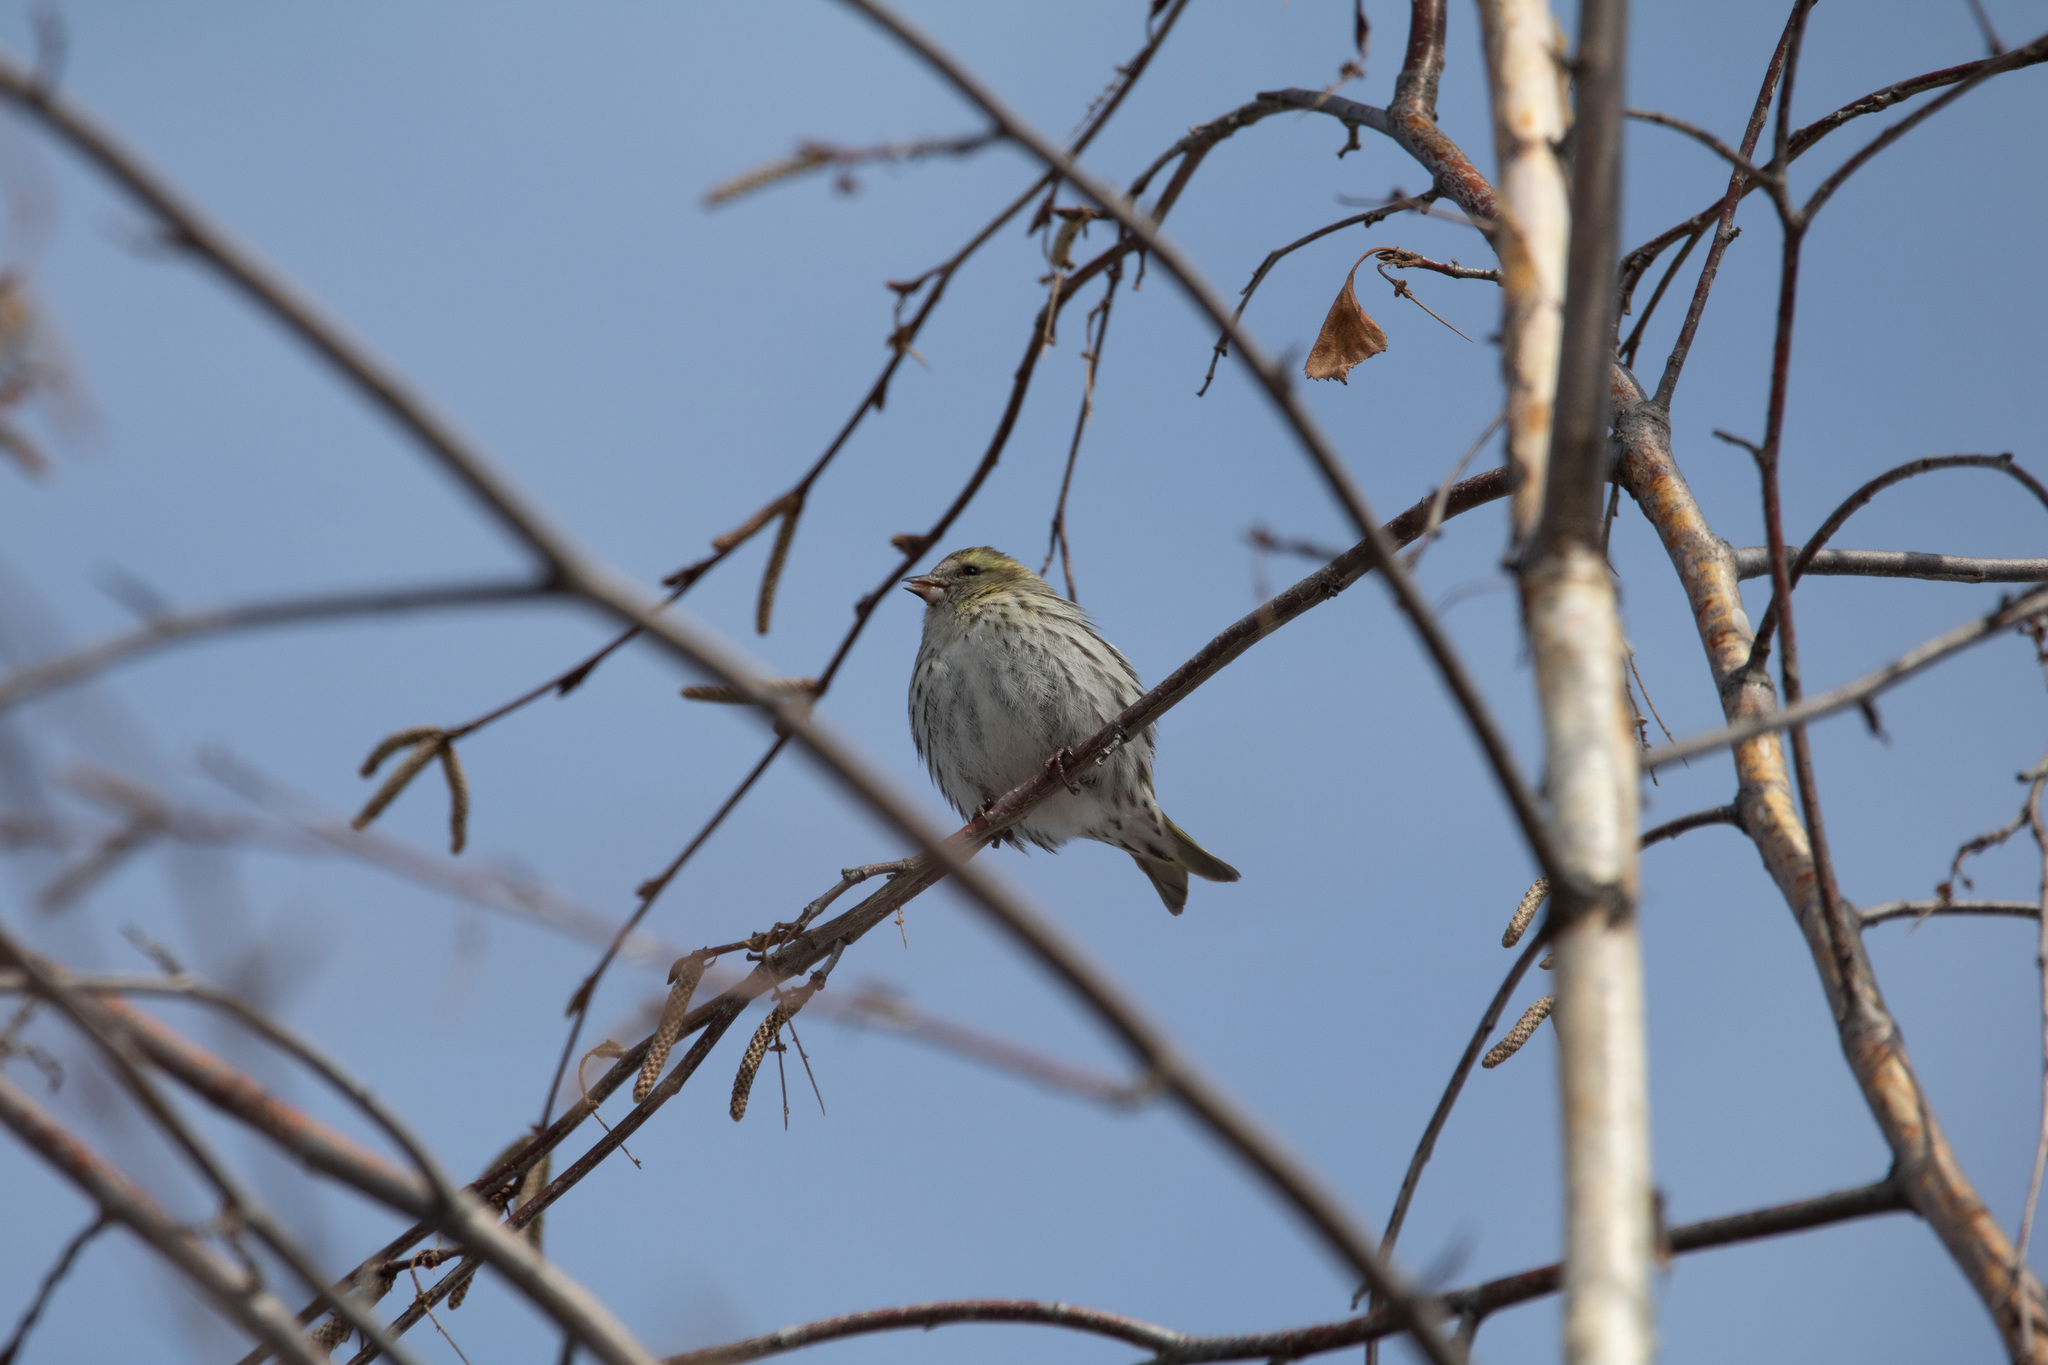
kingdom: Animalia
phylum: Chordata
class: Aves
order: Passeriformes
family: Fringillidae
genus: Spinus
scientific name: Spinus spinus
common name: Eurasian siskin
